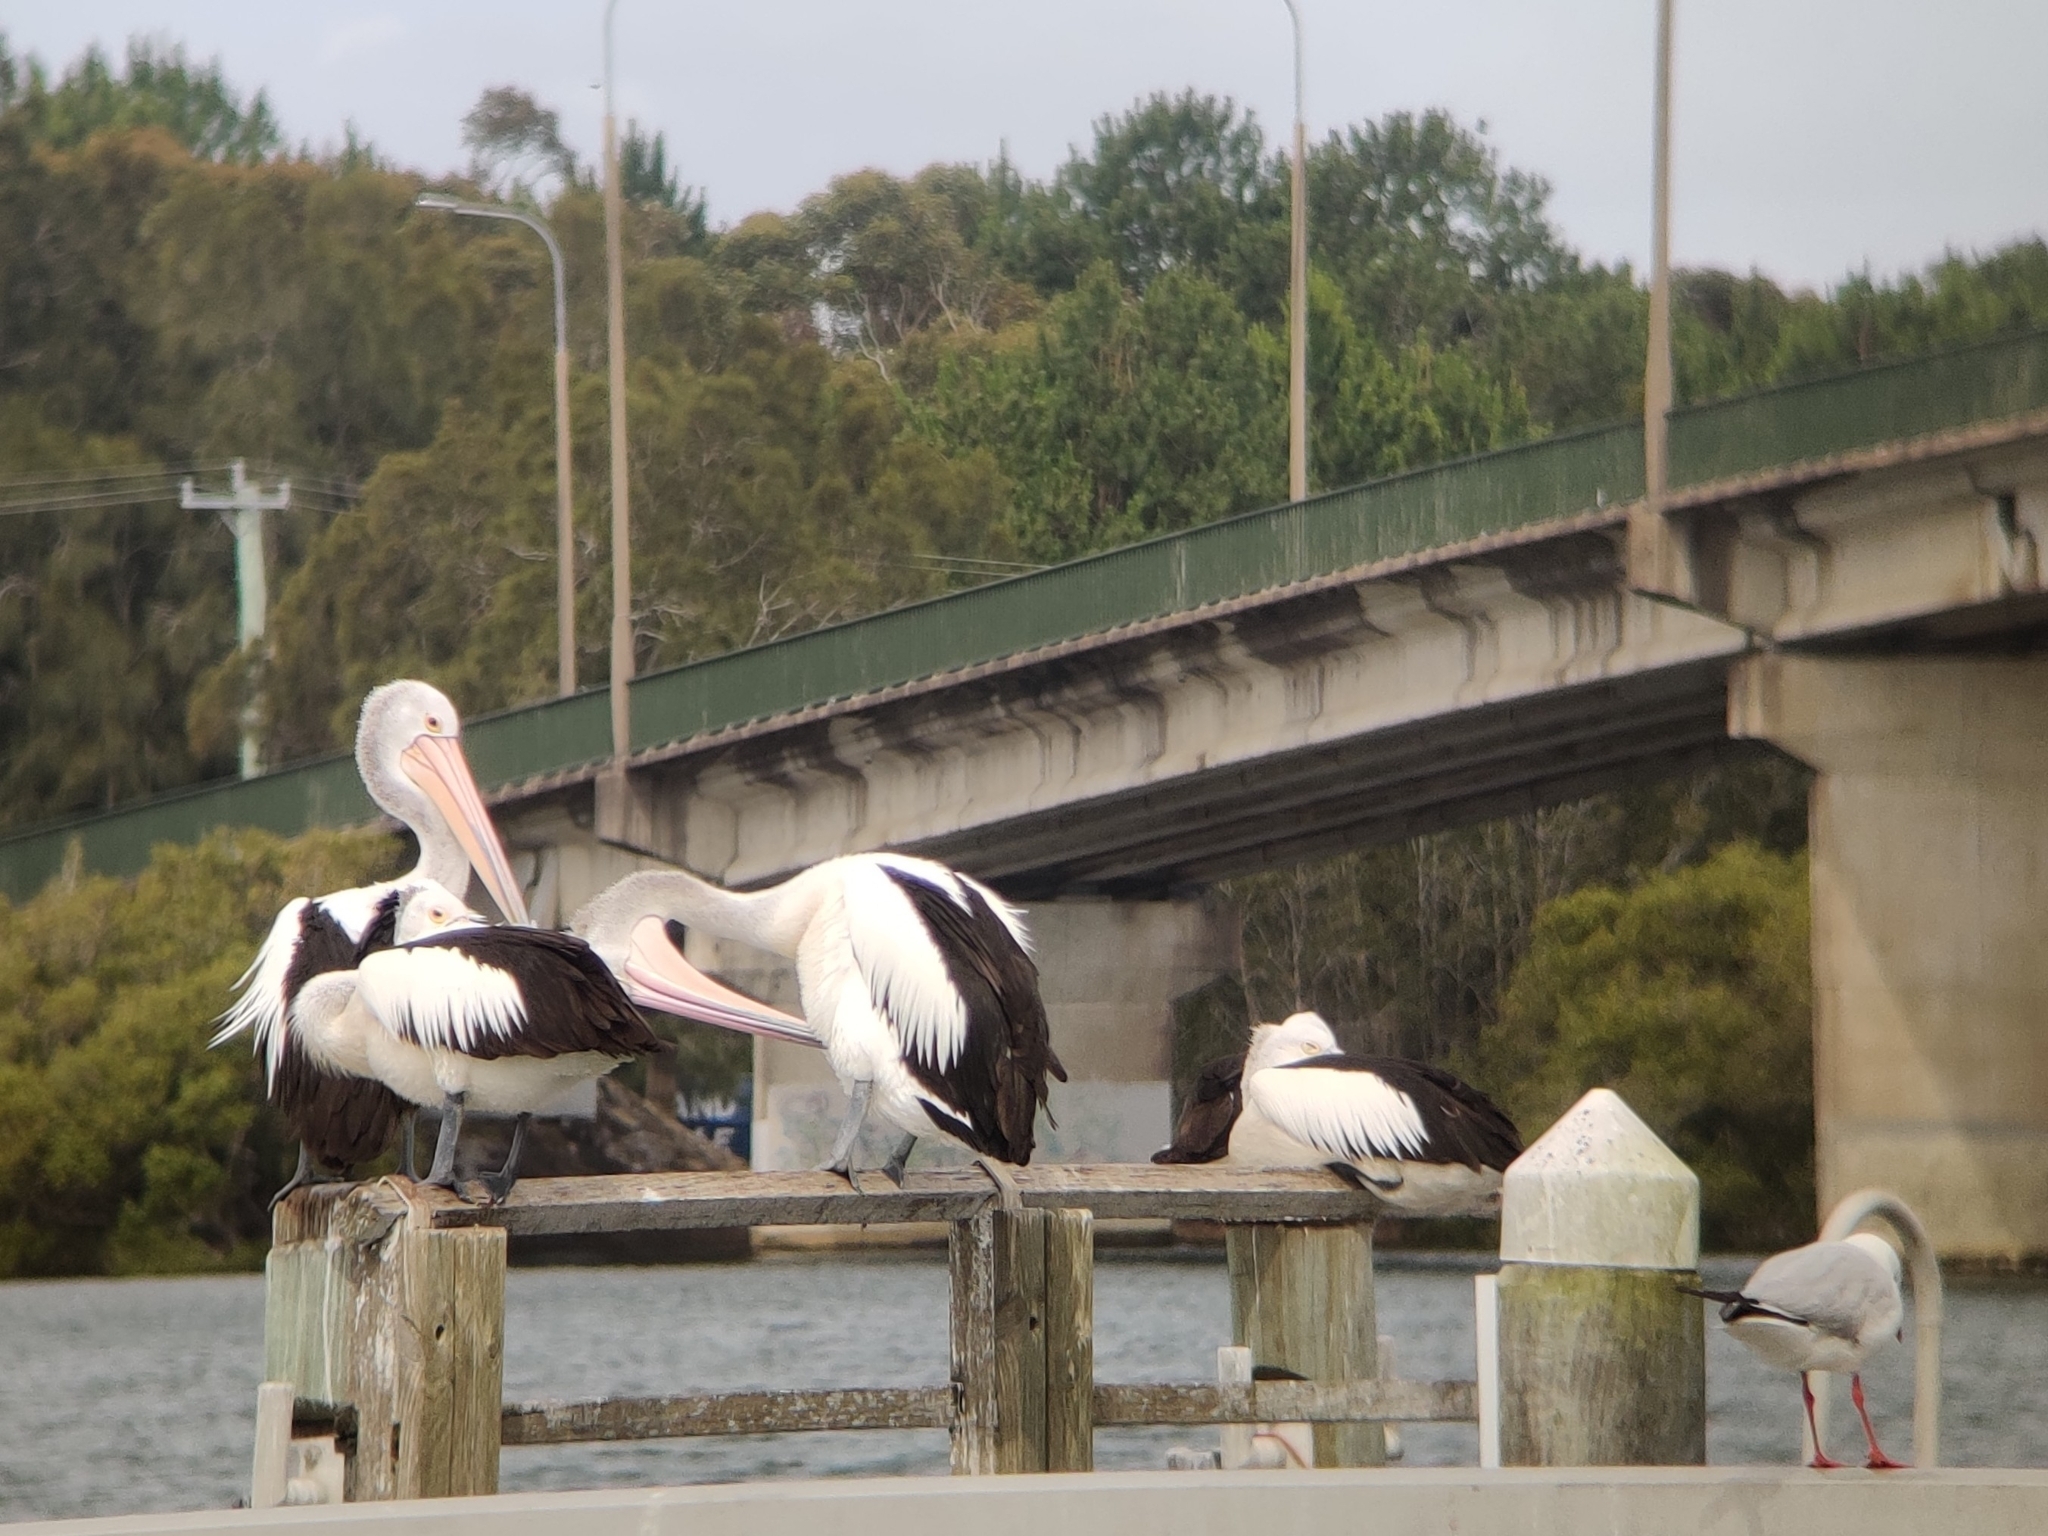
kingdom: Animalia
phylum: Chordata
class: Aves
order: Pelecaniformes
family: Pelecanidae
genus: Pelecanus
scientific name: Pelecanus conspicillatus
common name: Australian pelican
